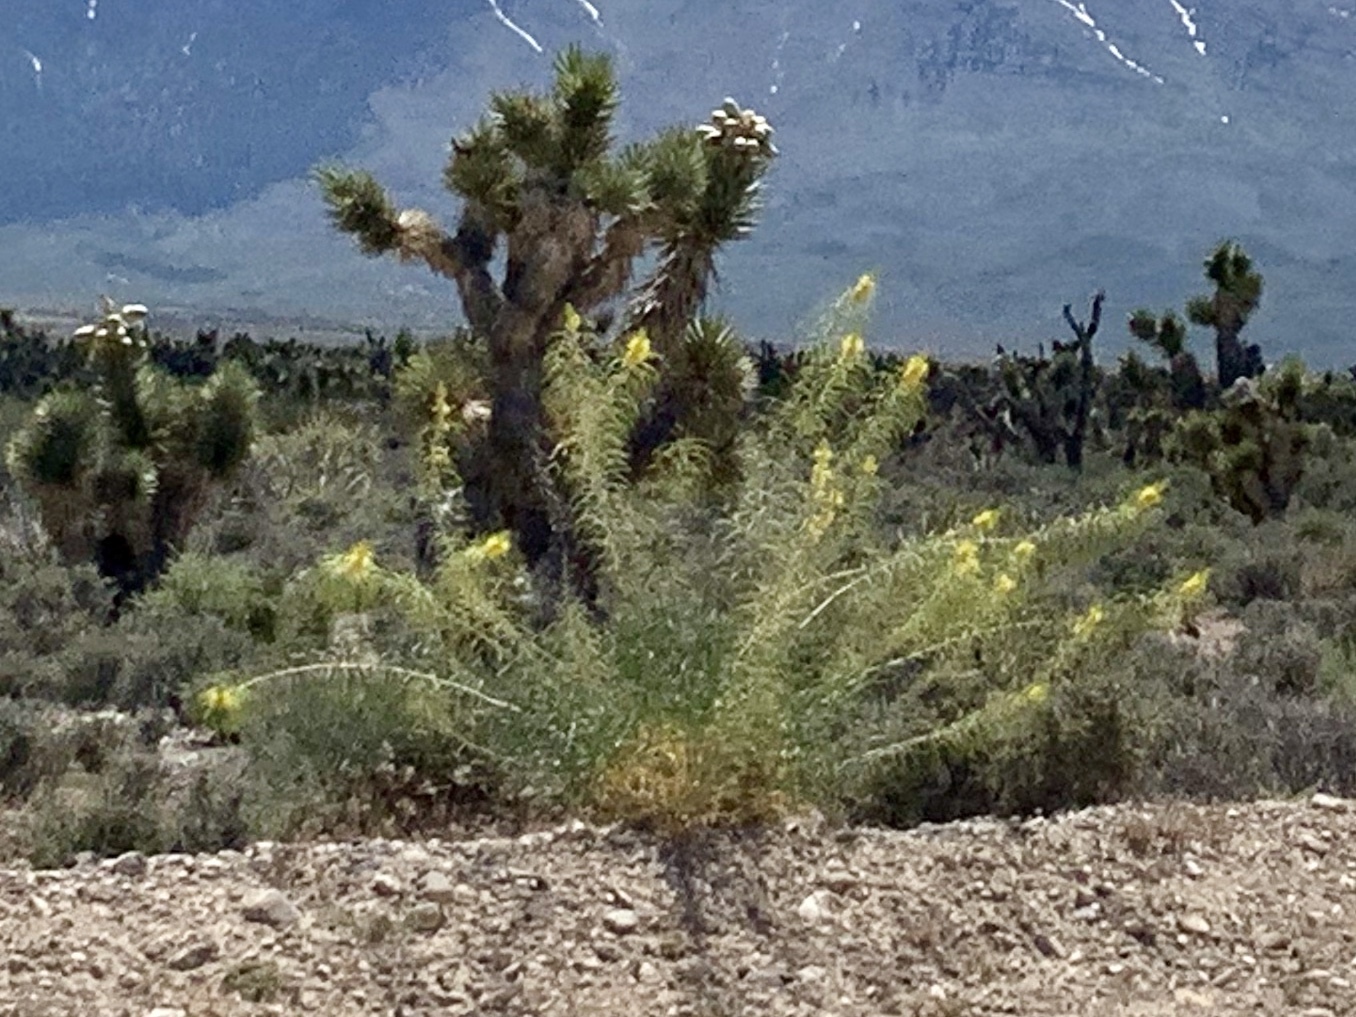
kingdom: Plantae
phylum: Tracheophyta
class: Magnoliopsida
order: Brassicales
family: Brassicaceae
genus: Stanleya
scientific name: Stanleya pinnata
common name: Prince's-plume
